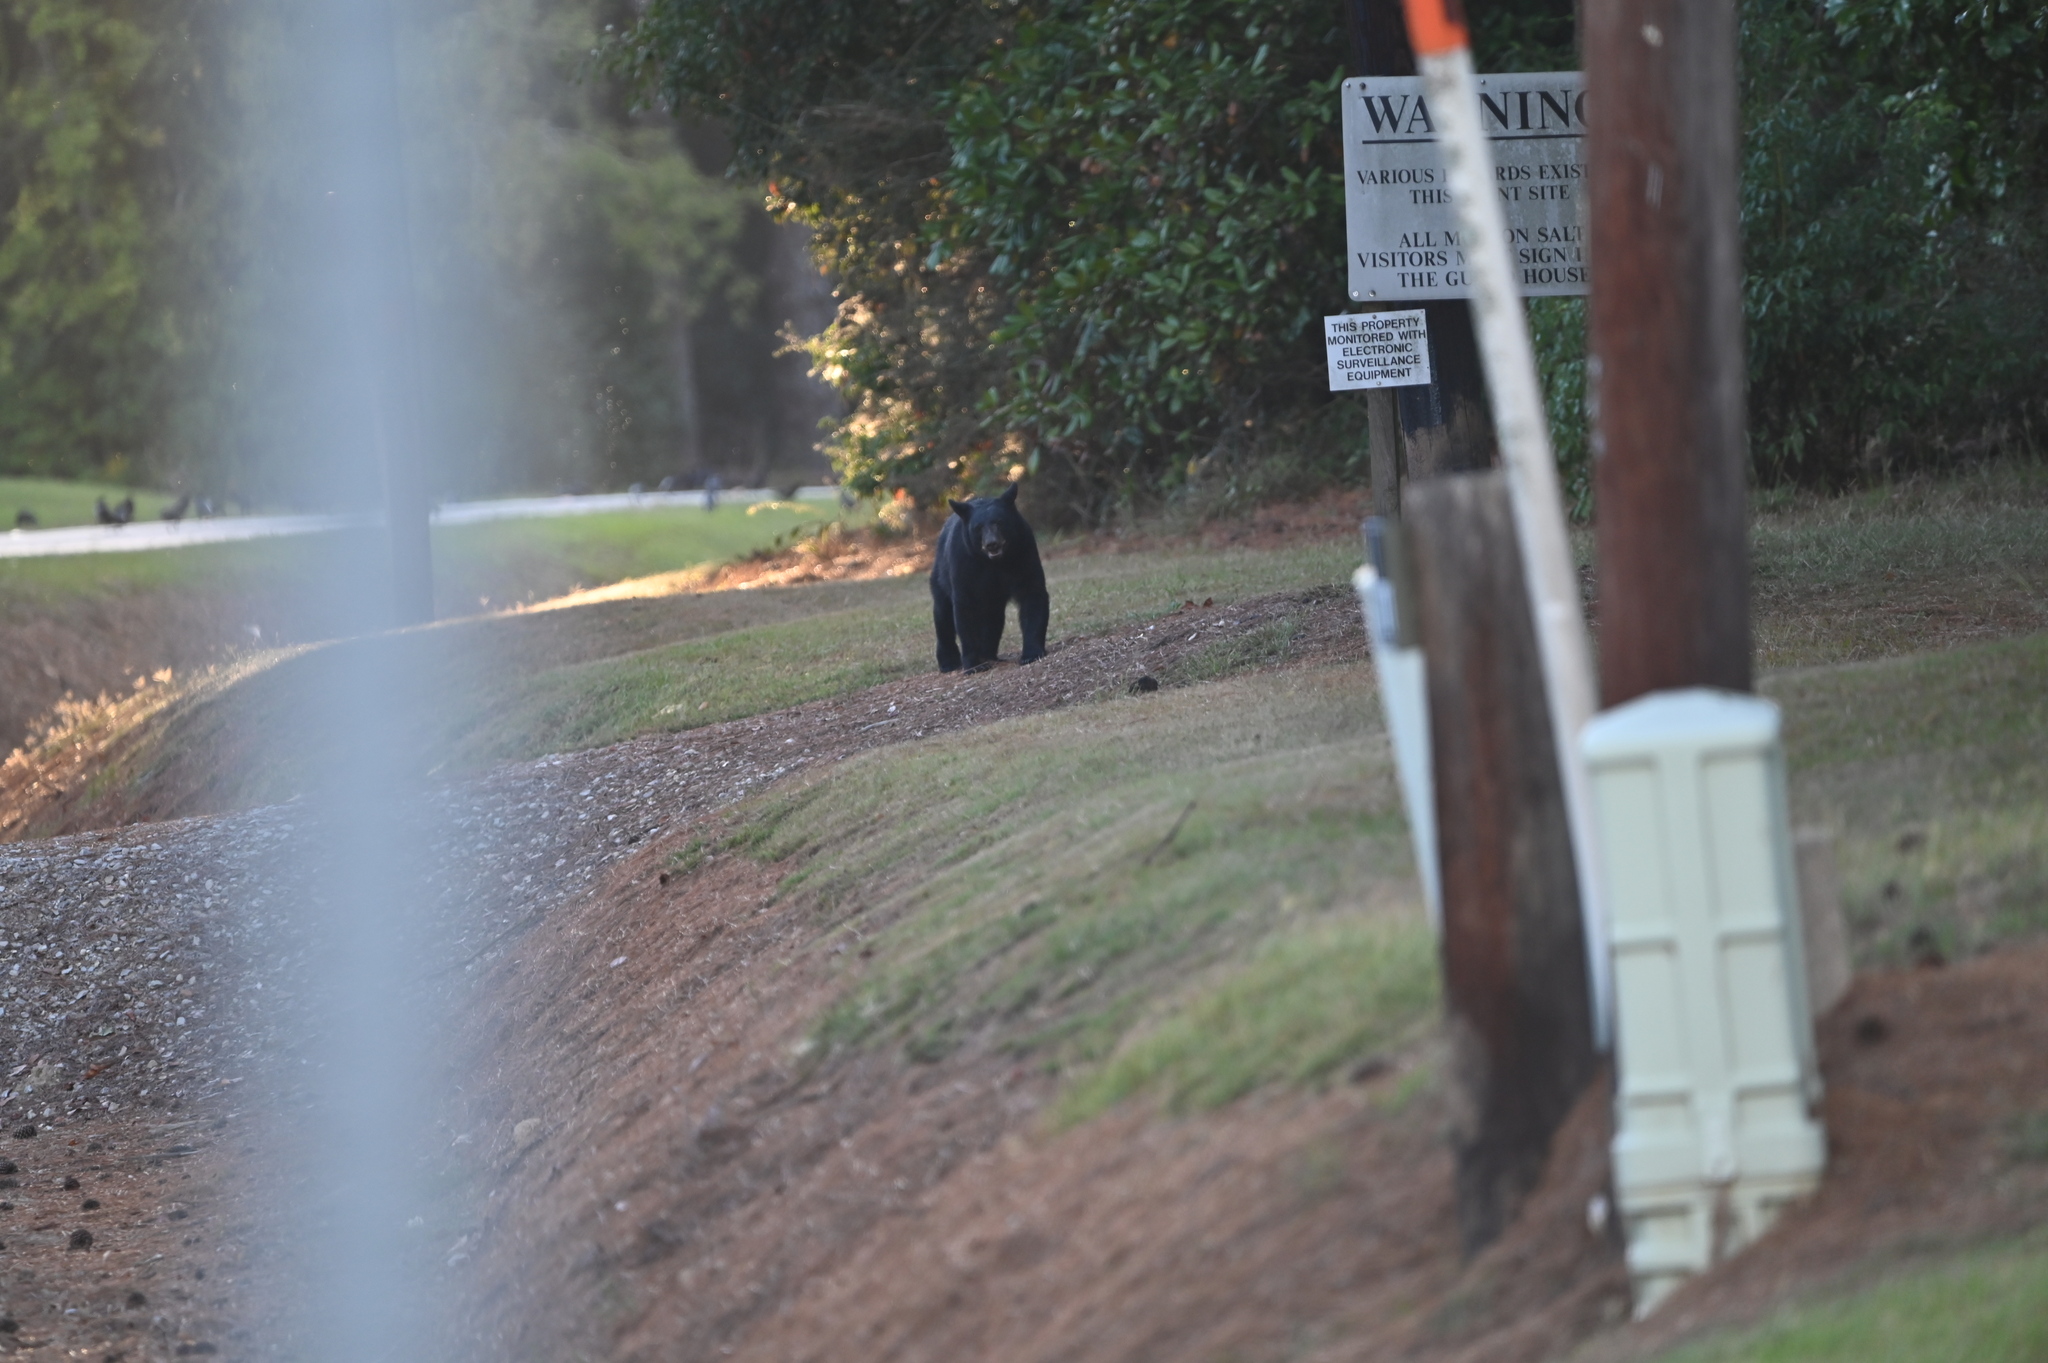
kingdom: Animalia
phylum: Chordata
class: Mammalia
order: Carnivora
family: Ursidae
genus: Ursus
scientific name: Ursus americanus
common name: American black bear
